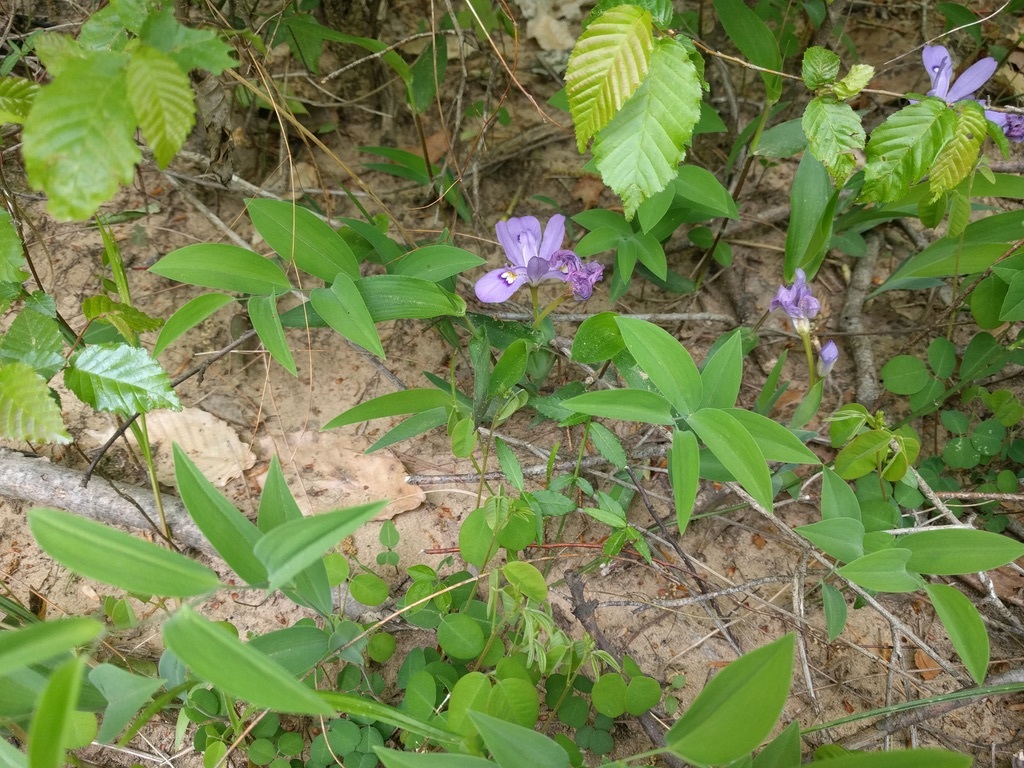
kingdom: Plantae
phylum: Tracheophyta
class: Liliopsida
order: Asparagales
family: Iridaceae
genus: Iris
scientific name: Iris cristata
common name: Crested iris
